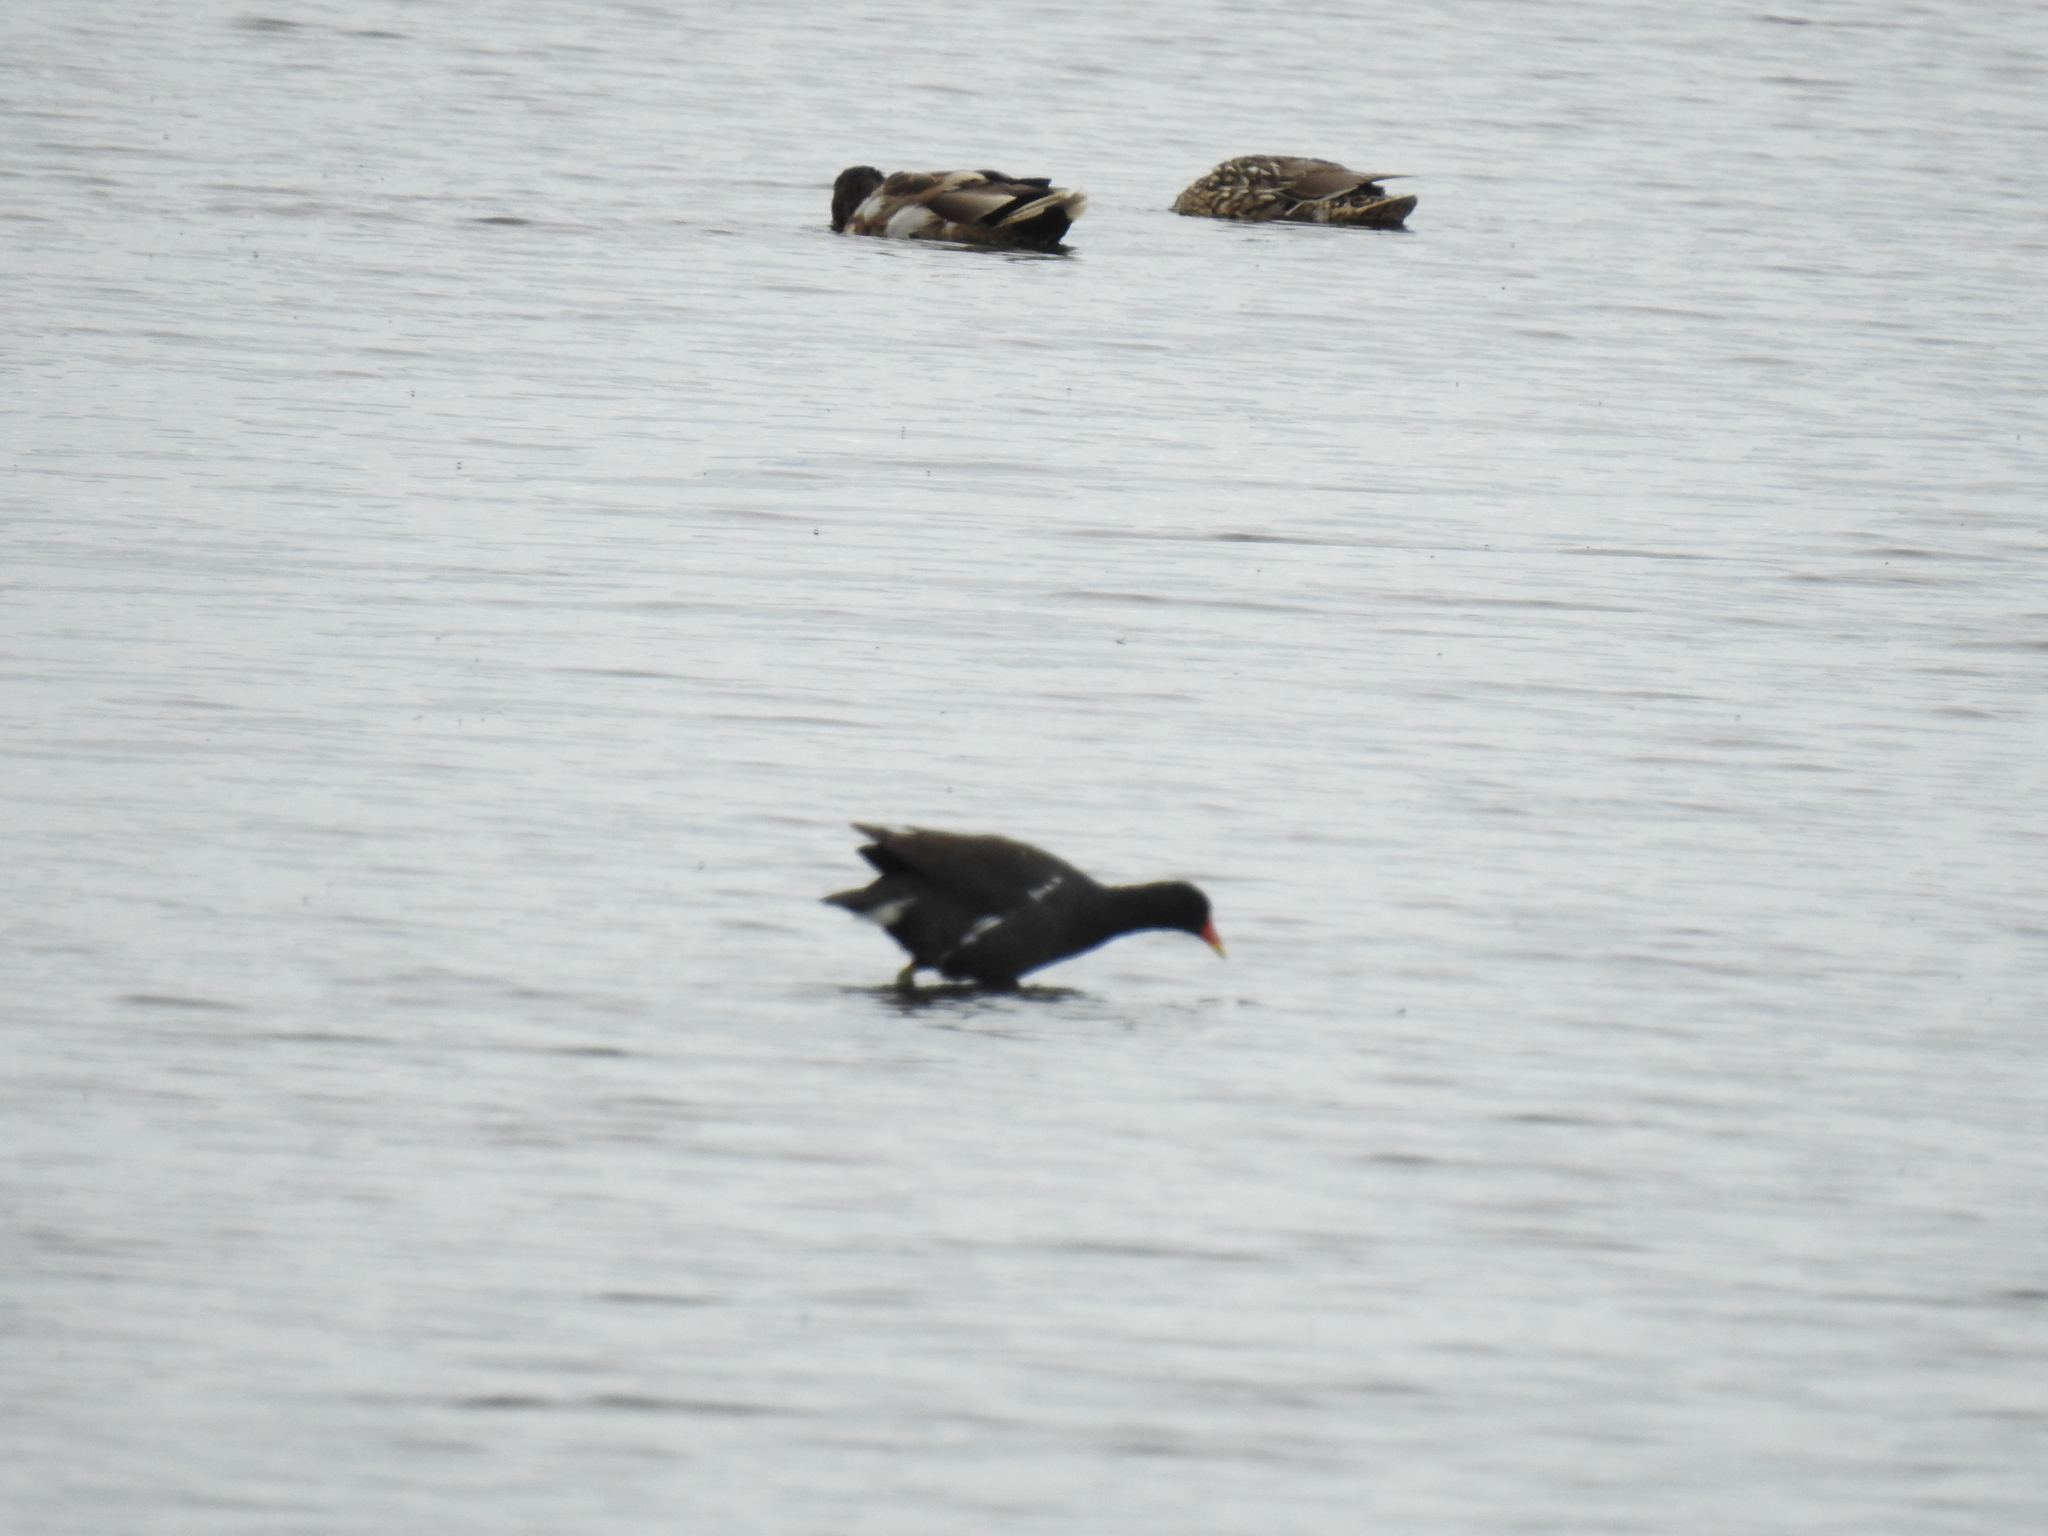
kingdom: Animalia
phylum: Chordata
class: Aves
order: Gruiformes
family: Rallidae
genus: Gallinula
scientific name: Gallinula chloropus
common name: Common moorhen
